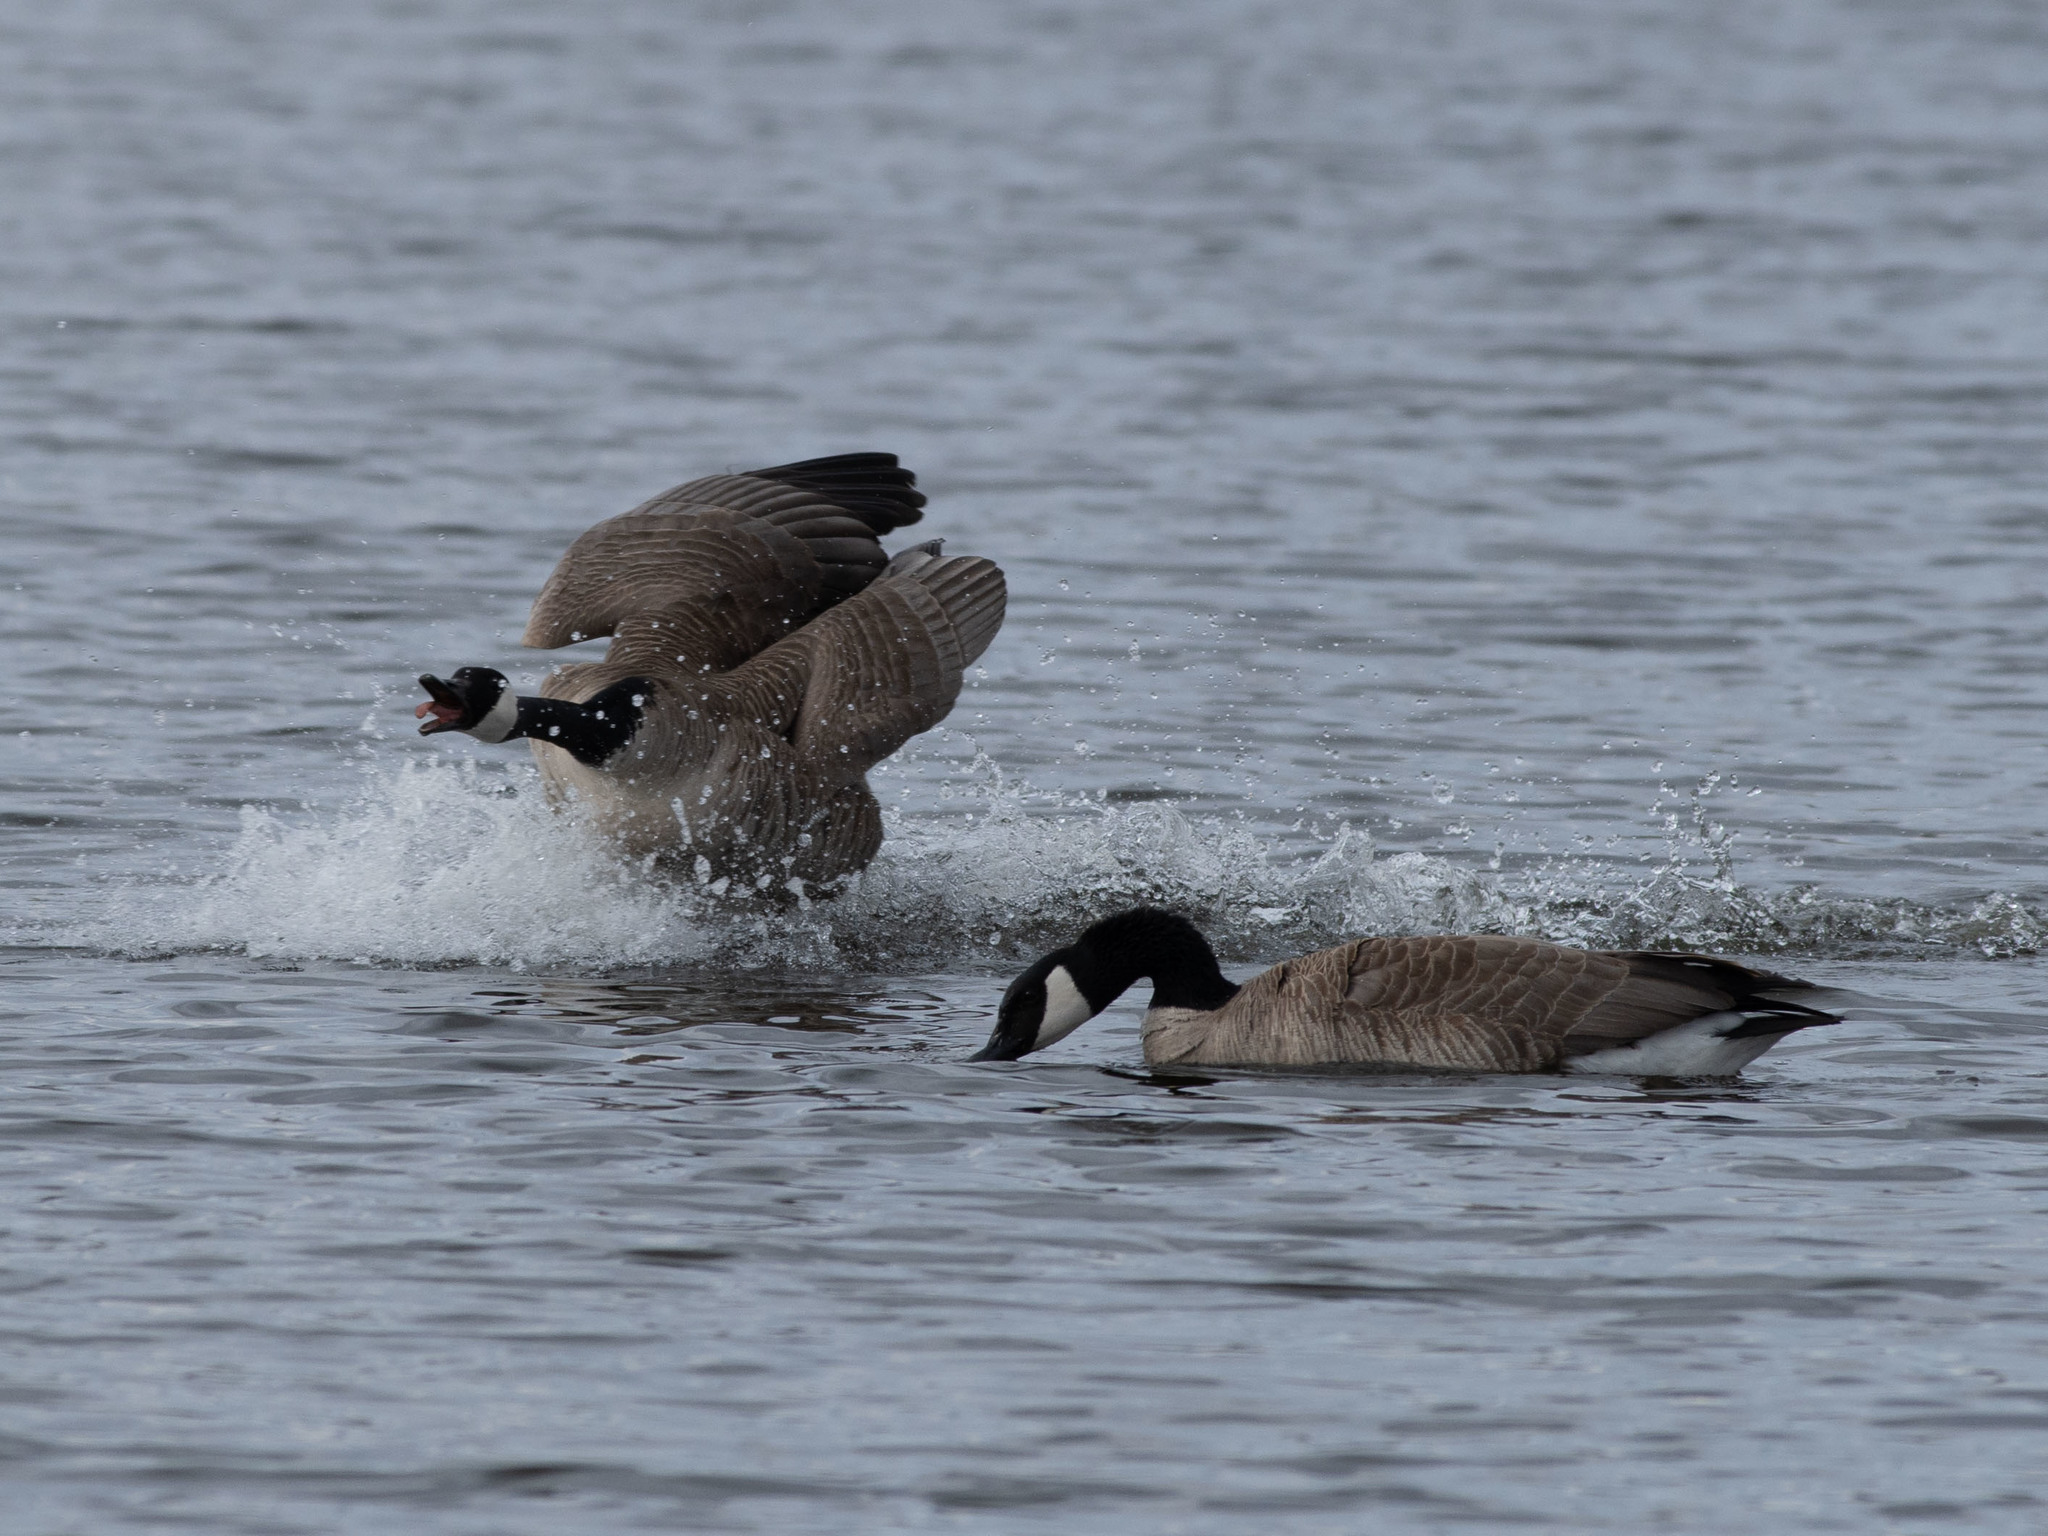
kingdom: Animalia
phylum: Chordata
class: Aves
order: Anseriformes
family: Anatidae
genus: Branta
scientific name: Branta canadensis
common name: Canada goose
